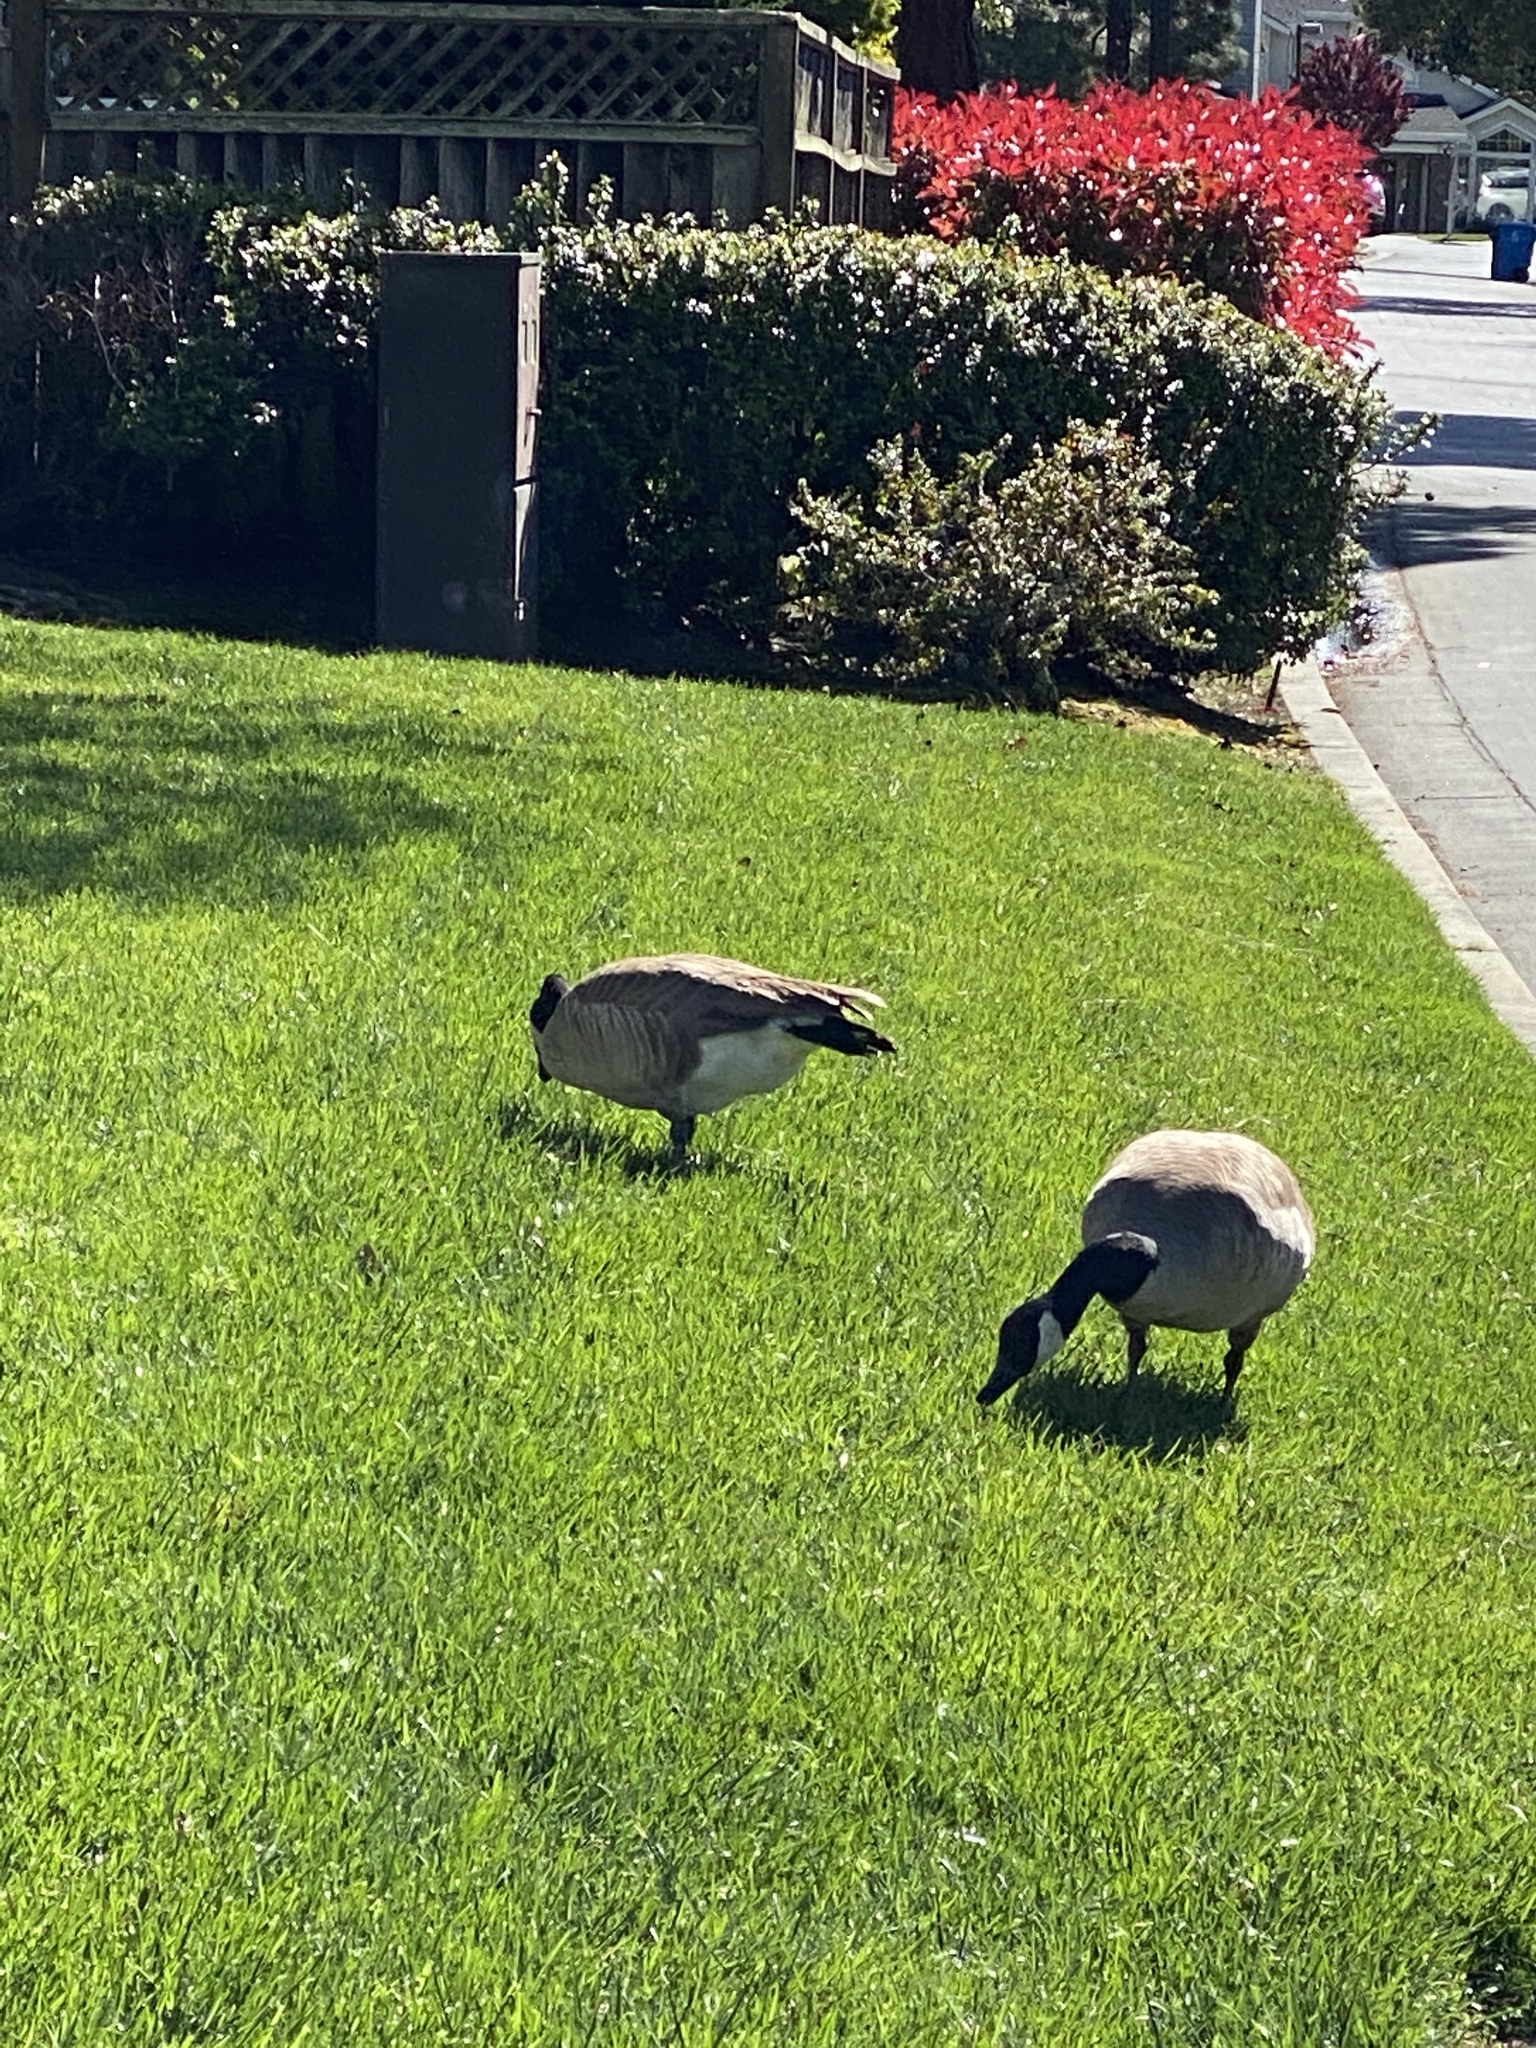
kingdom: Animalia
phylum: Chordata
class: Aves
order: Anseriformes
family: Anatidae
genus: Branta
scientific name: Branta canadensis
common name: Canada goose
